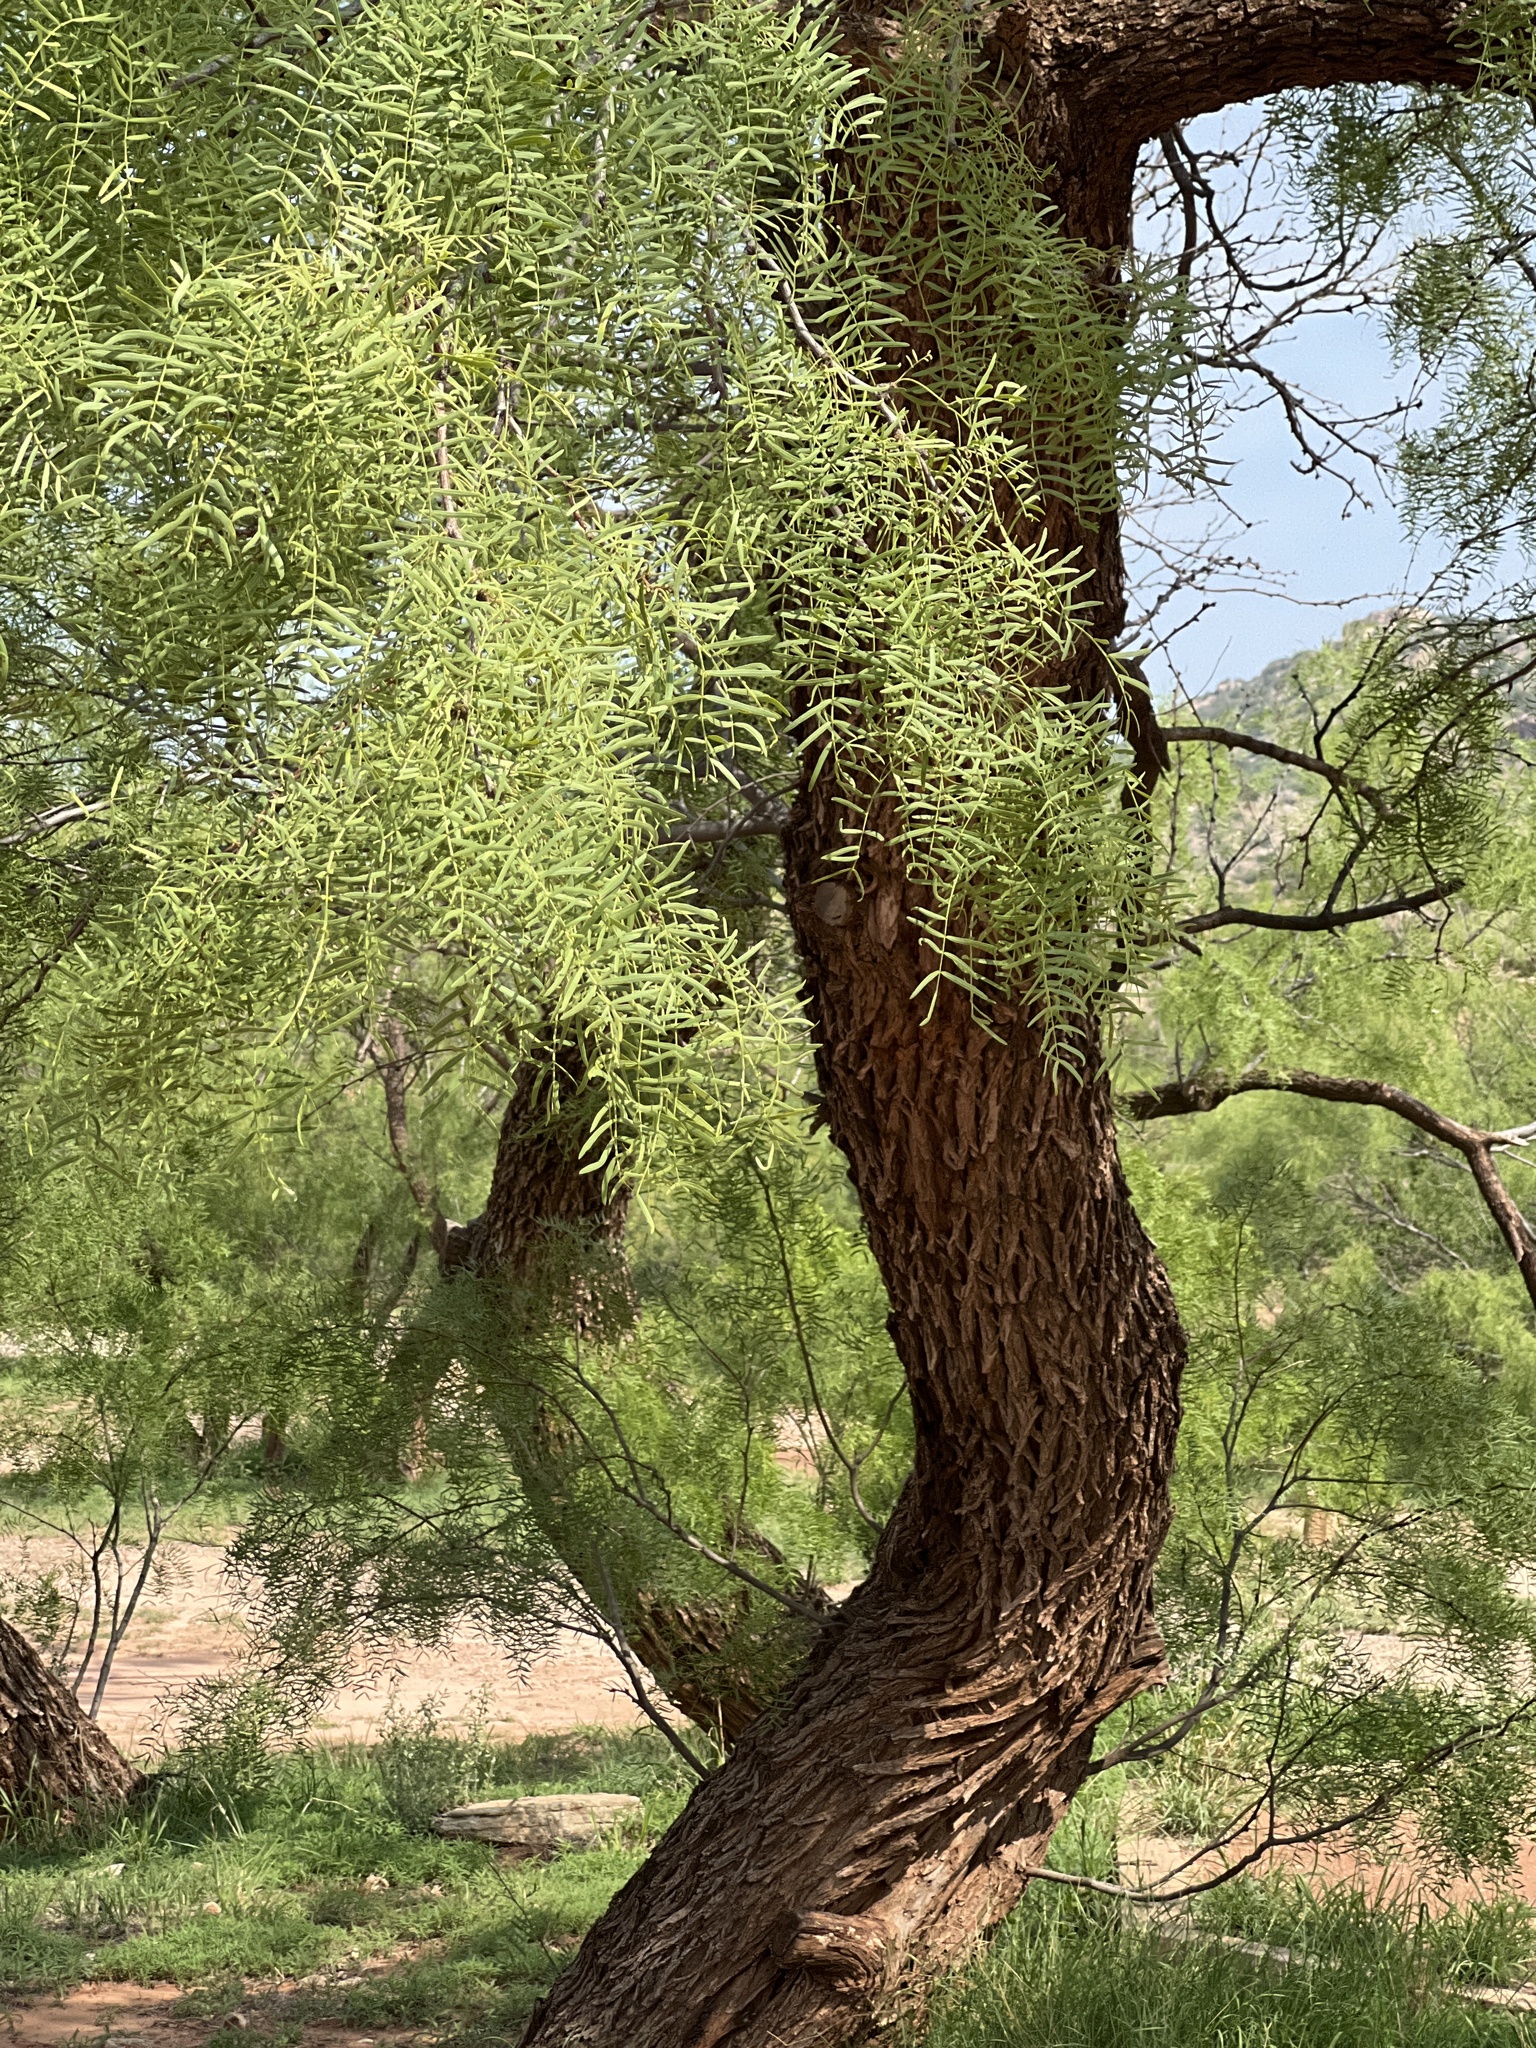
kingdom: Plantae
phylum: Tracheophyta
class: Magnoliopsida
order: Fabales
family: Fabaceae
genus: Prosopis
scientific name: Prosopis glandulosa
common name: Honey mesquite
